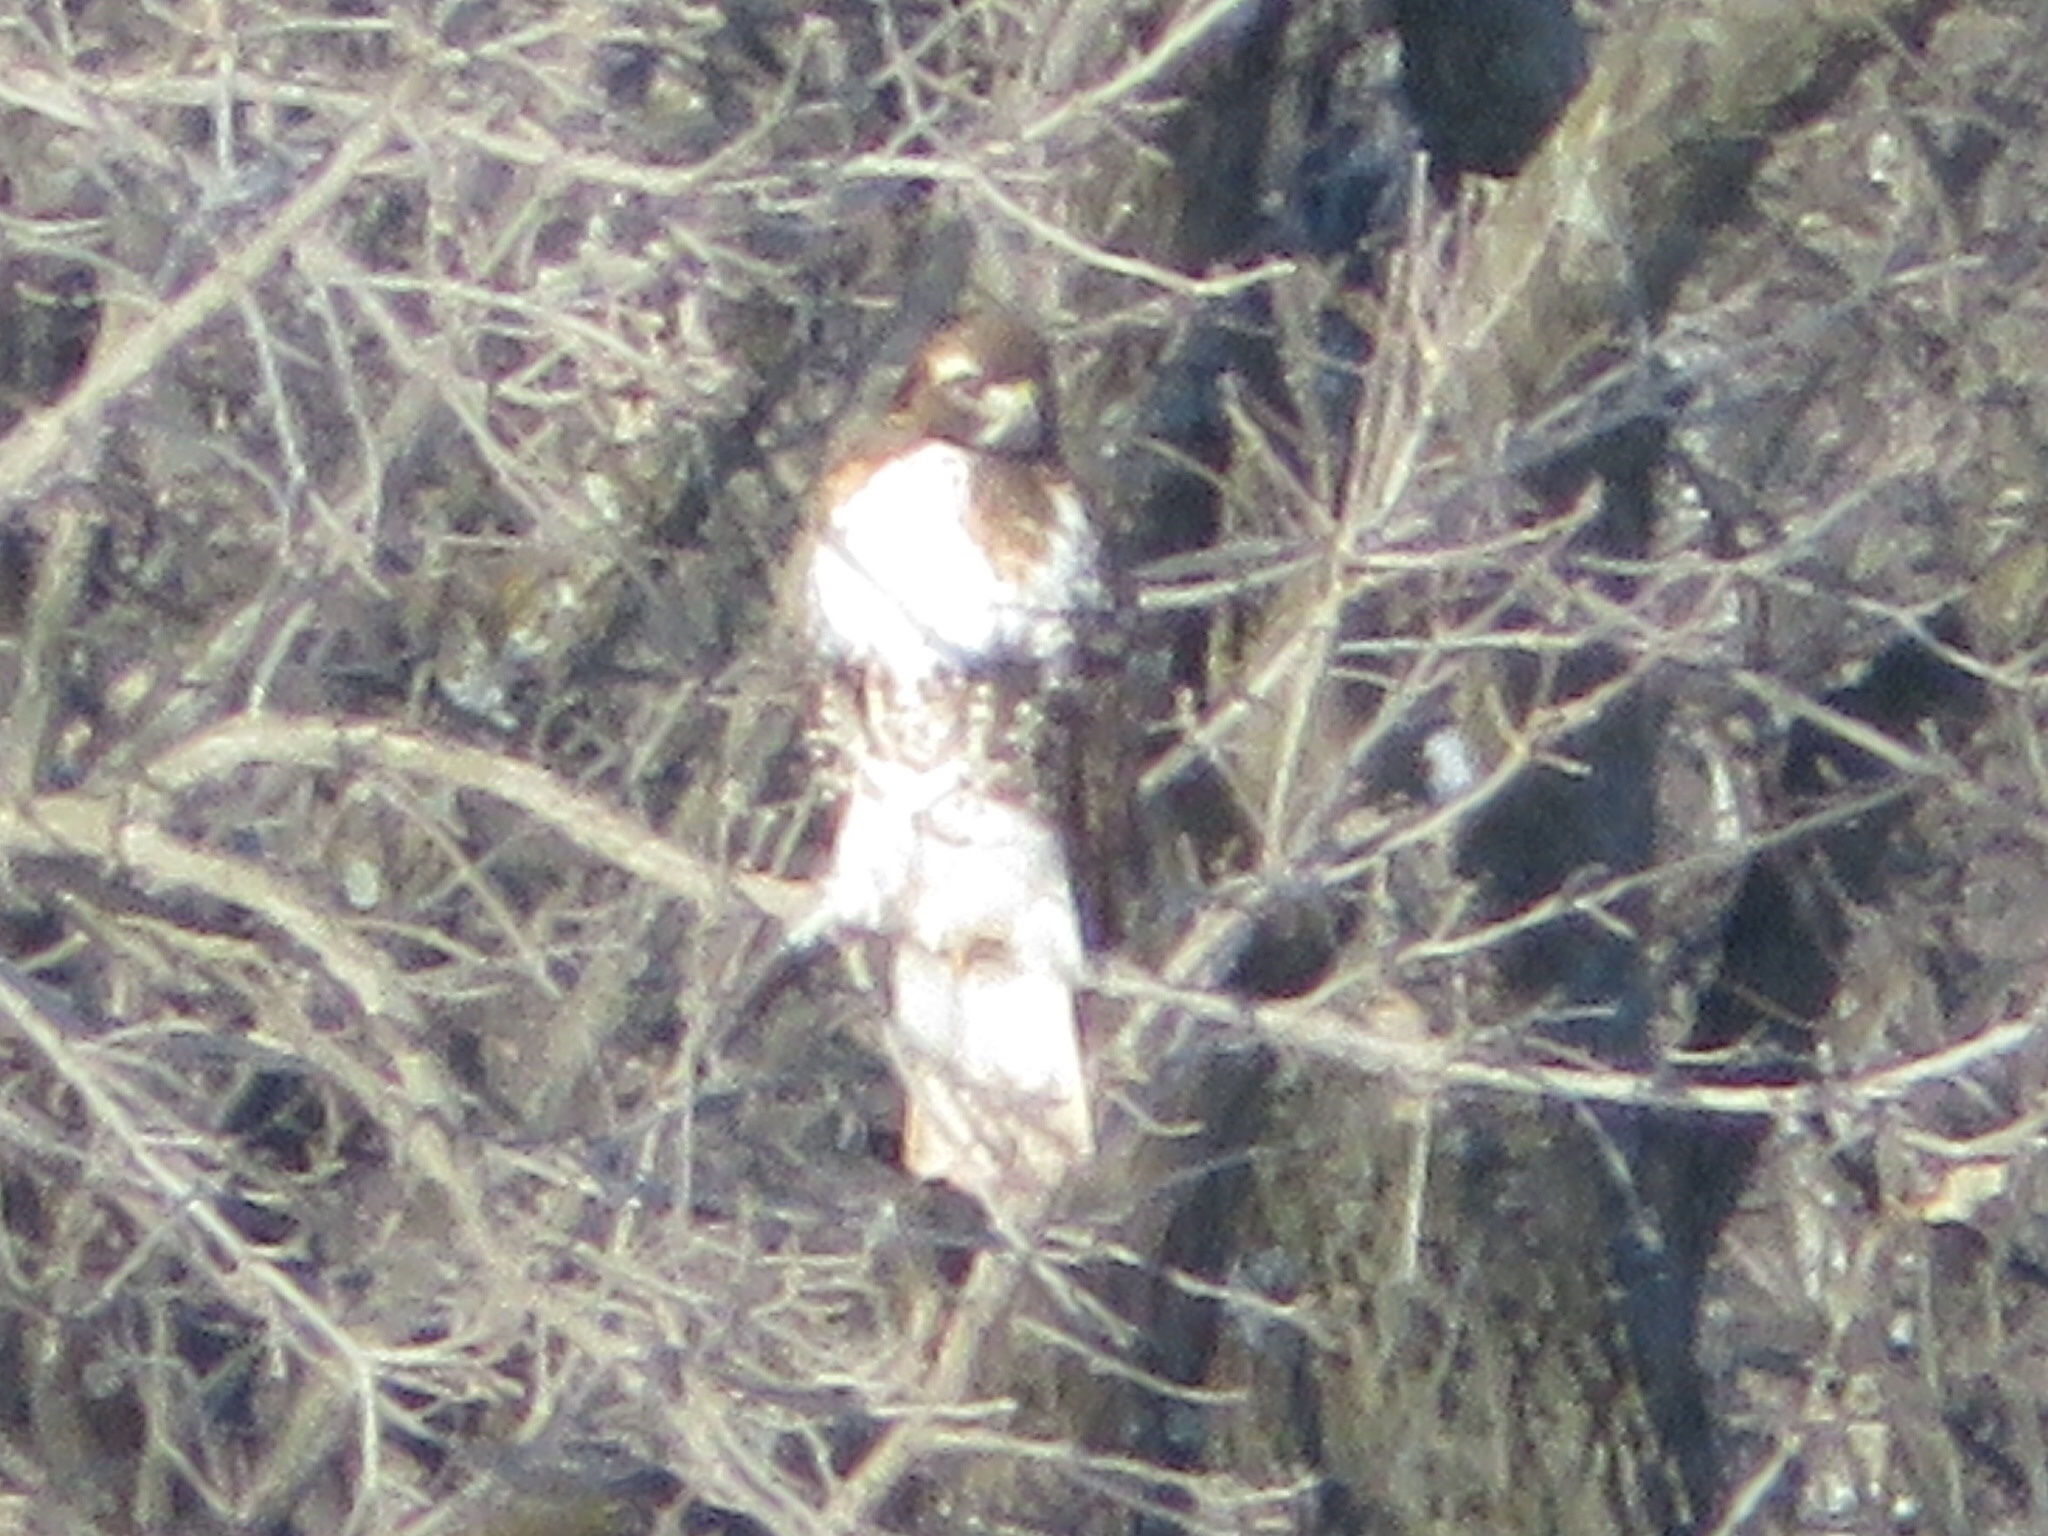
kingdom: Animalia
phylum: Chordata
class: Aves
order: Accipitriformes
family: Accipitridae
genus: Buteo
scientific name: Buteo jamaicensis
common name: Red-tailed hawk
